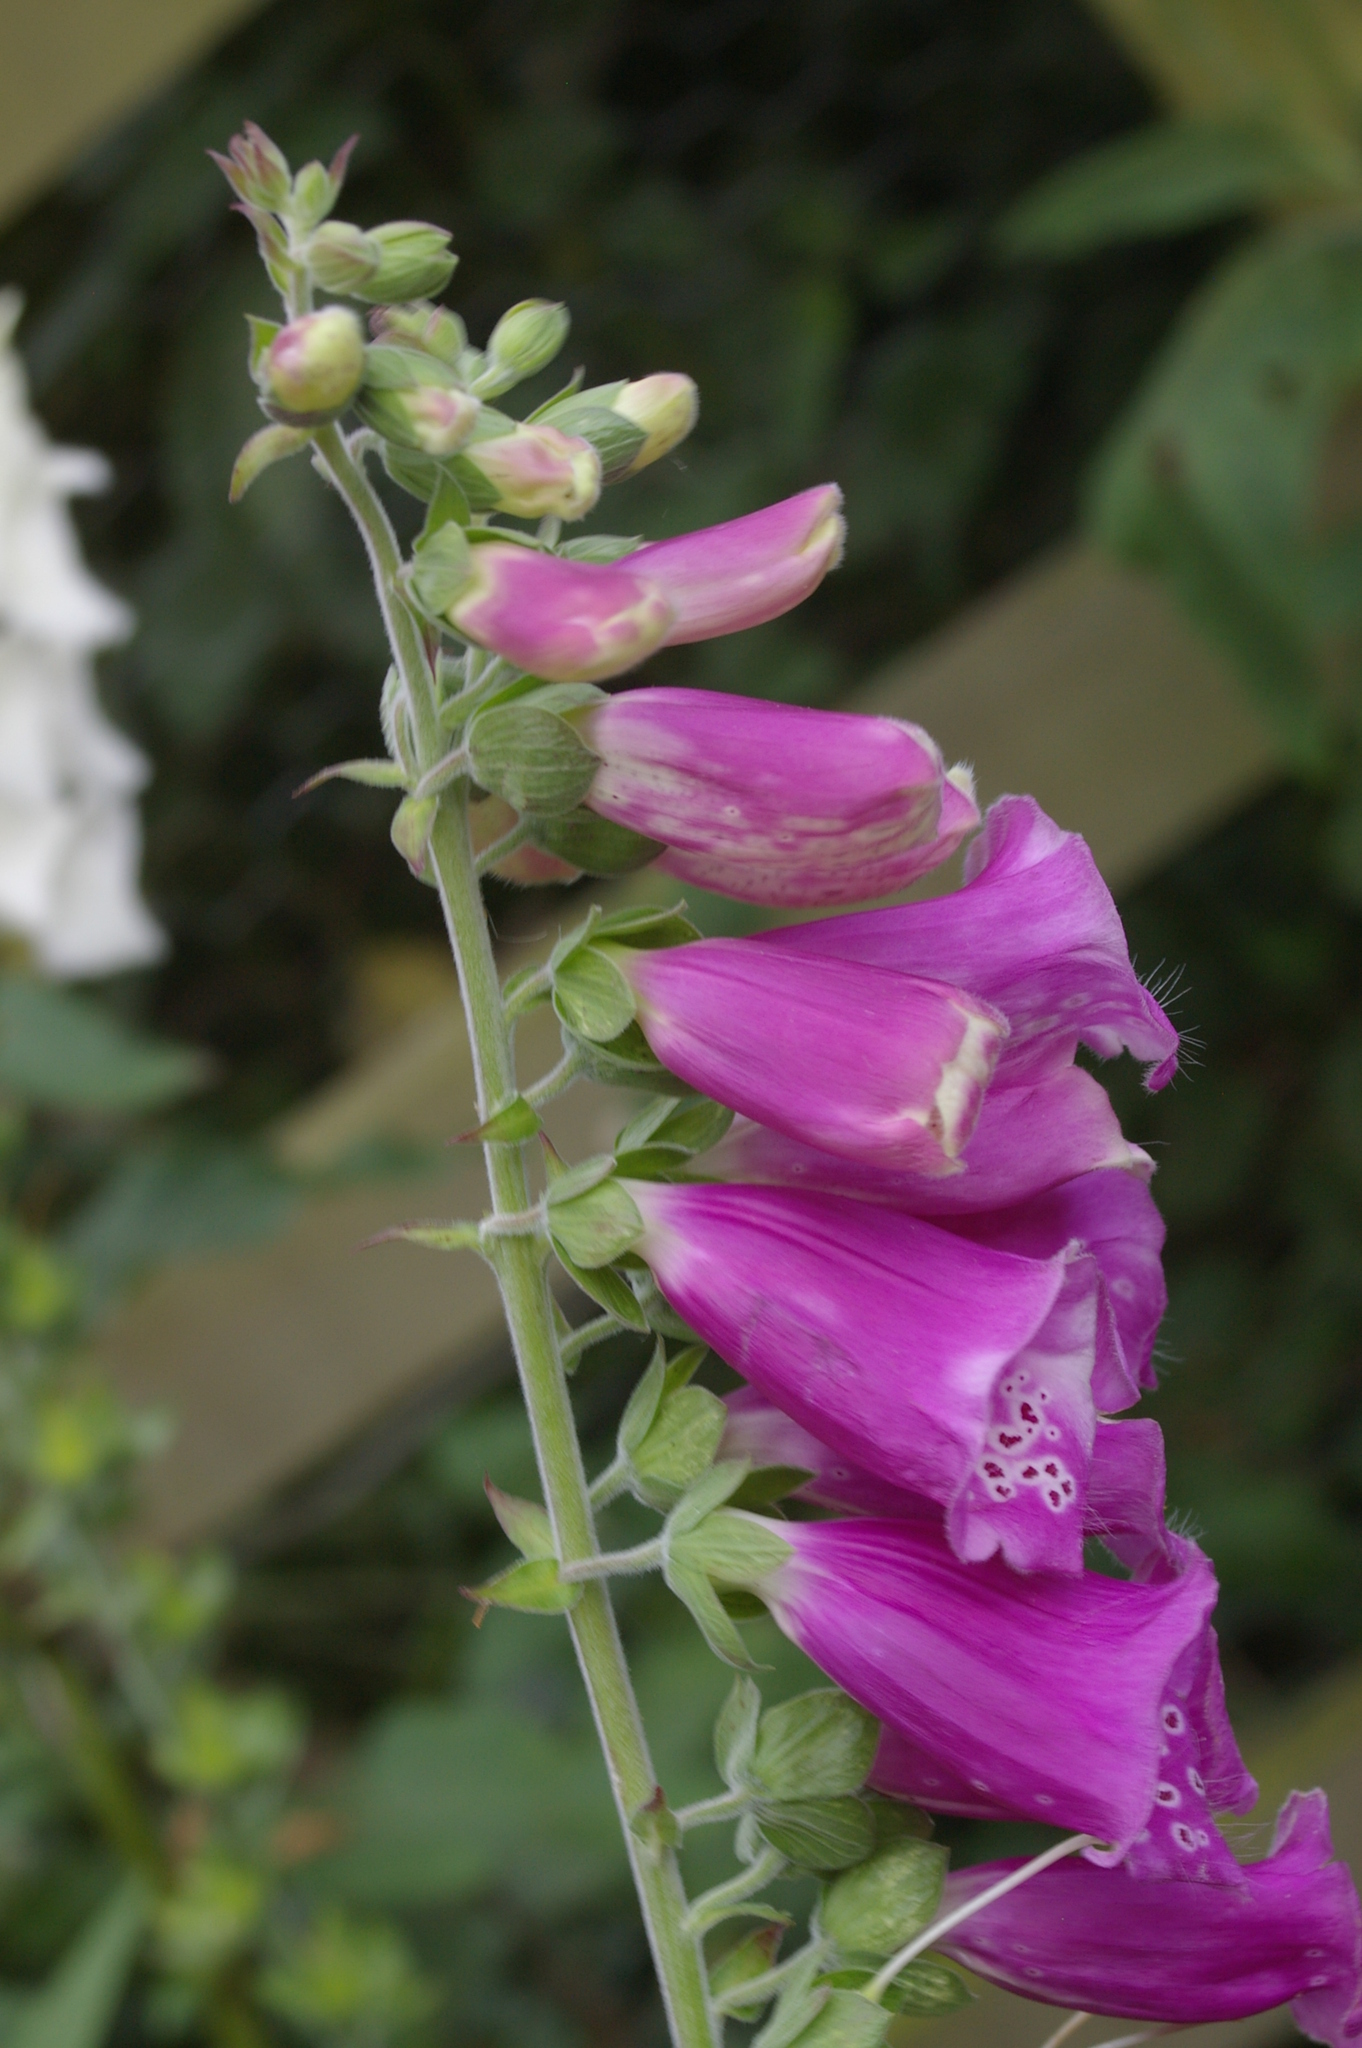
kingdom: Plantae
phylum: Tracheophyta
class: Magnoliopsida
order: Lamiales
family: Plantaginaceae
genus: Digitalis
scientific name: Digitalis purpurea
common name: Foxglove
